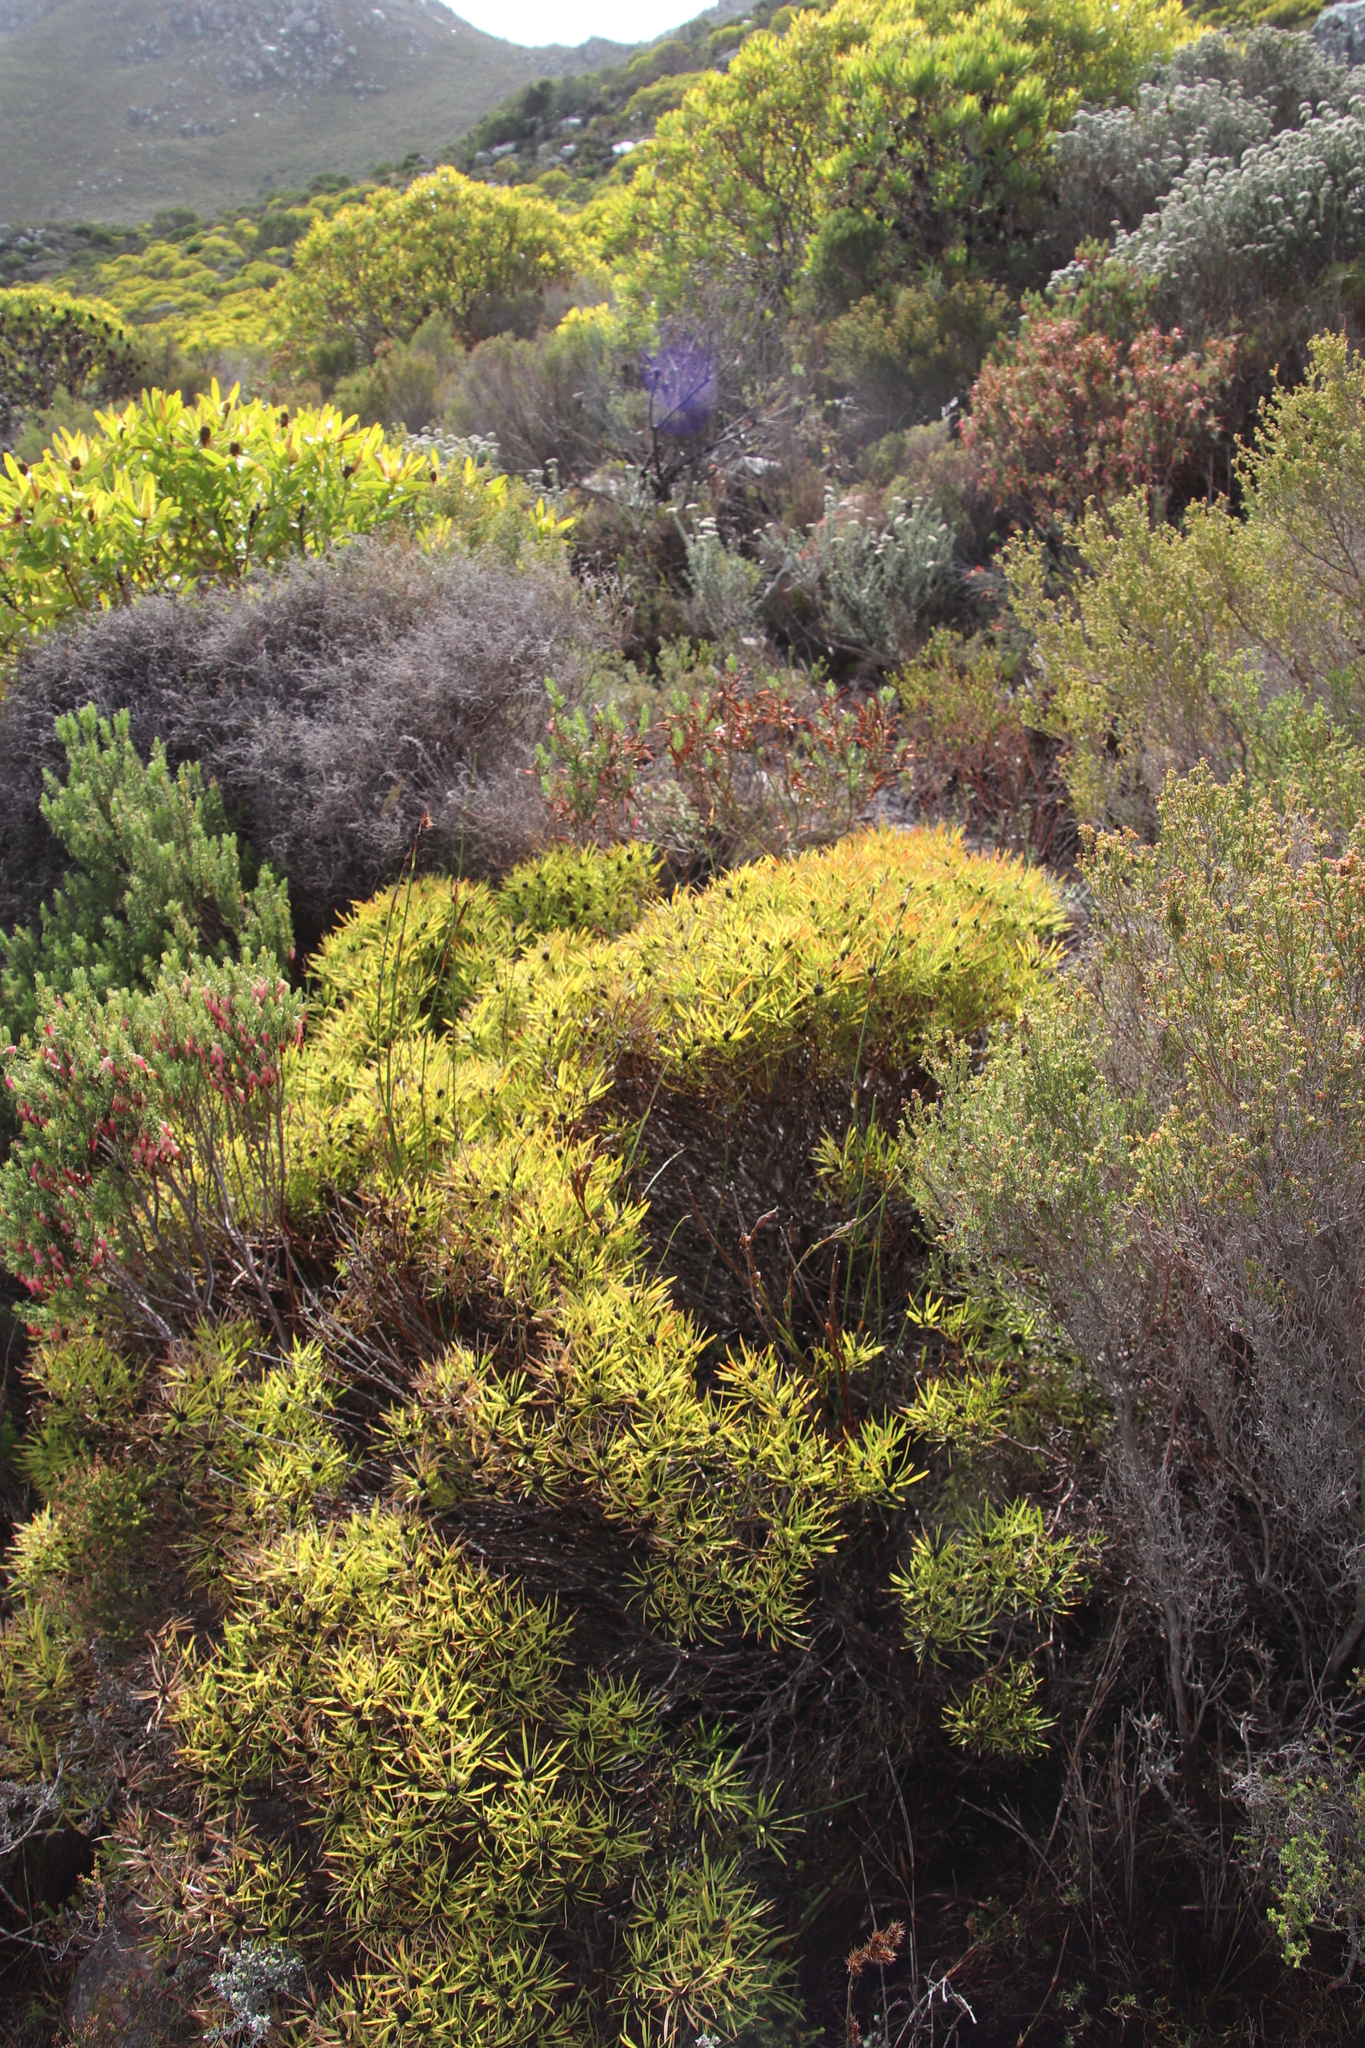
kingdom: Plantae
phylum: Tracheophyta
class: Magnoliopsida
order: Proteales
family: Proteaceae
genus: Leucadendron
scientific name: Leucadendron salignum
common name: Common sunshine conebush
